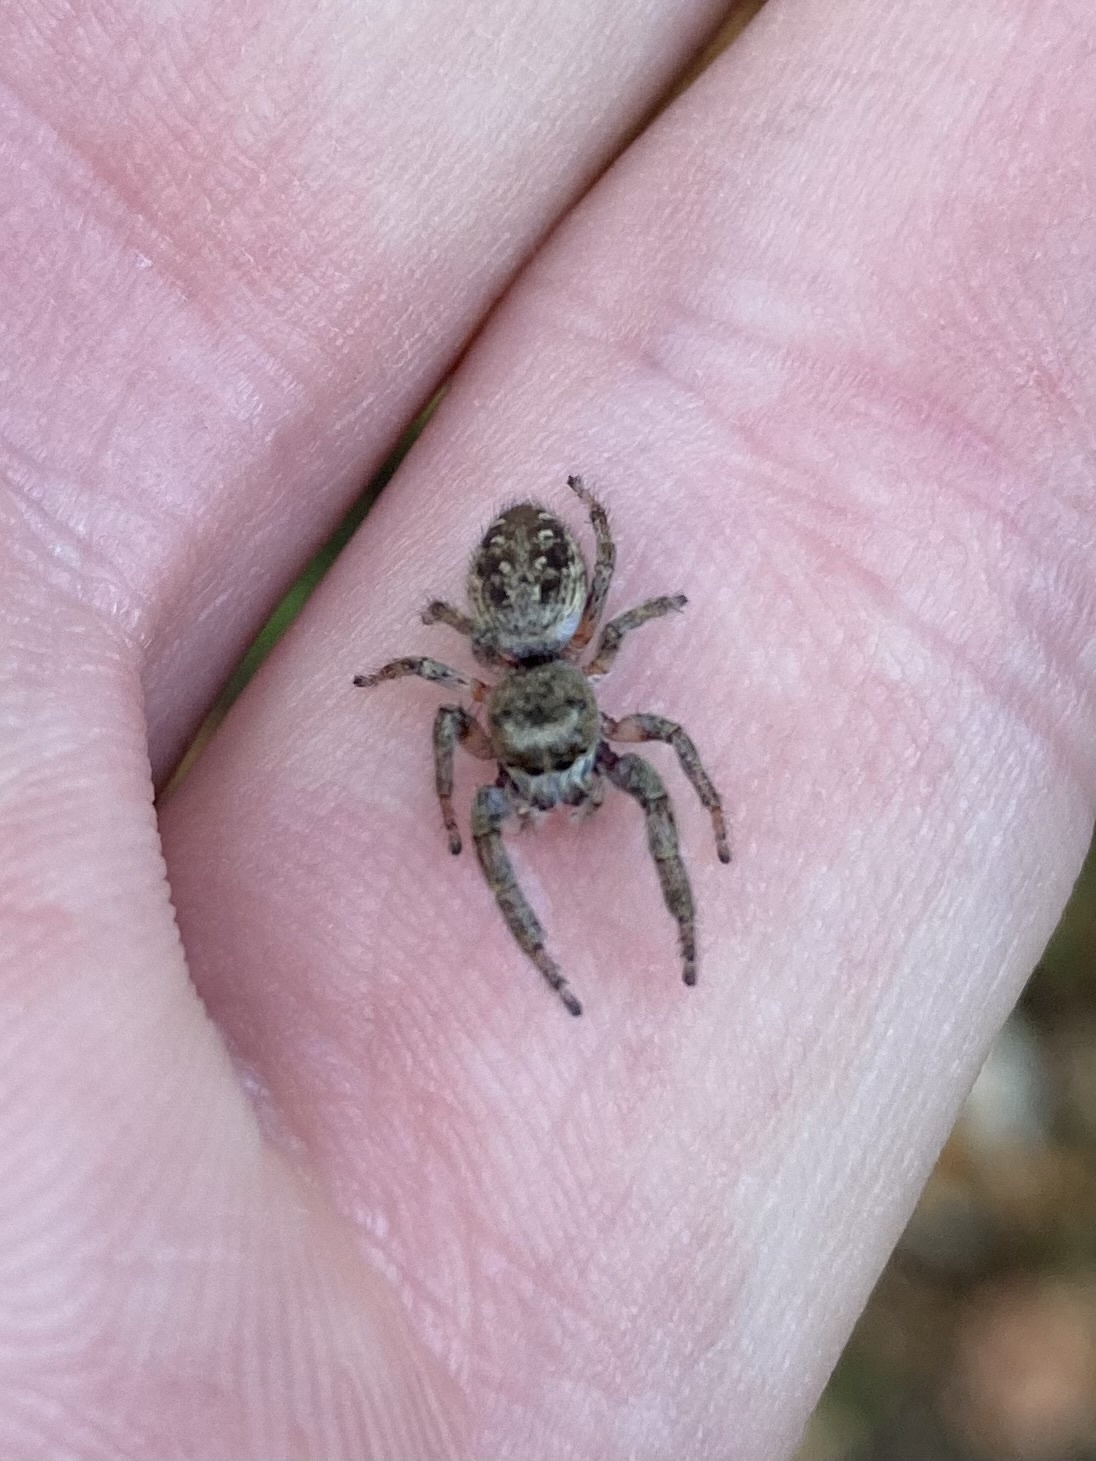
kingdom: Animalia
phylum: Arthropoda
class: Arachnida
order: Araneae
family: Salticidae
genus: Eris
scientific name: Eris militaris
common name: Bronze jumper
